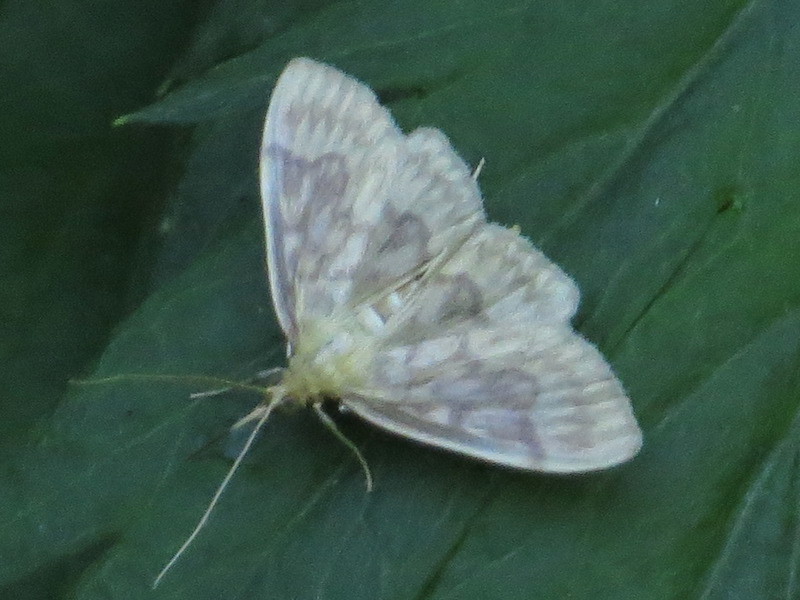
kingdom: Animalia
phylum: Arthropoda
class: Insecta
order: Lepidoptera
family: Crambidae
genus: Crocidophora
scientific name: Crocidophora serratissimalis
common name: Saw-toothed crocidophora moth
